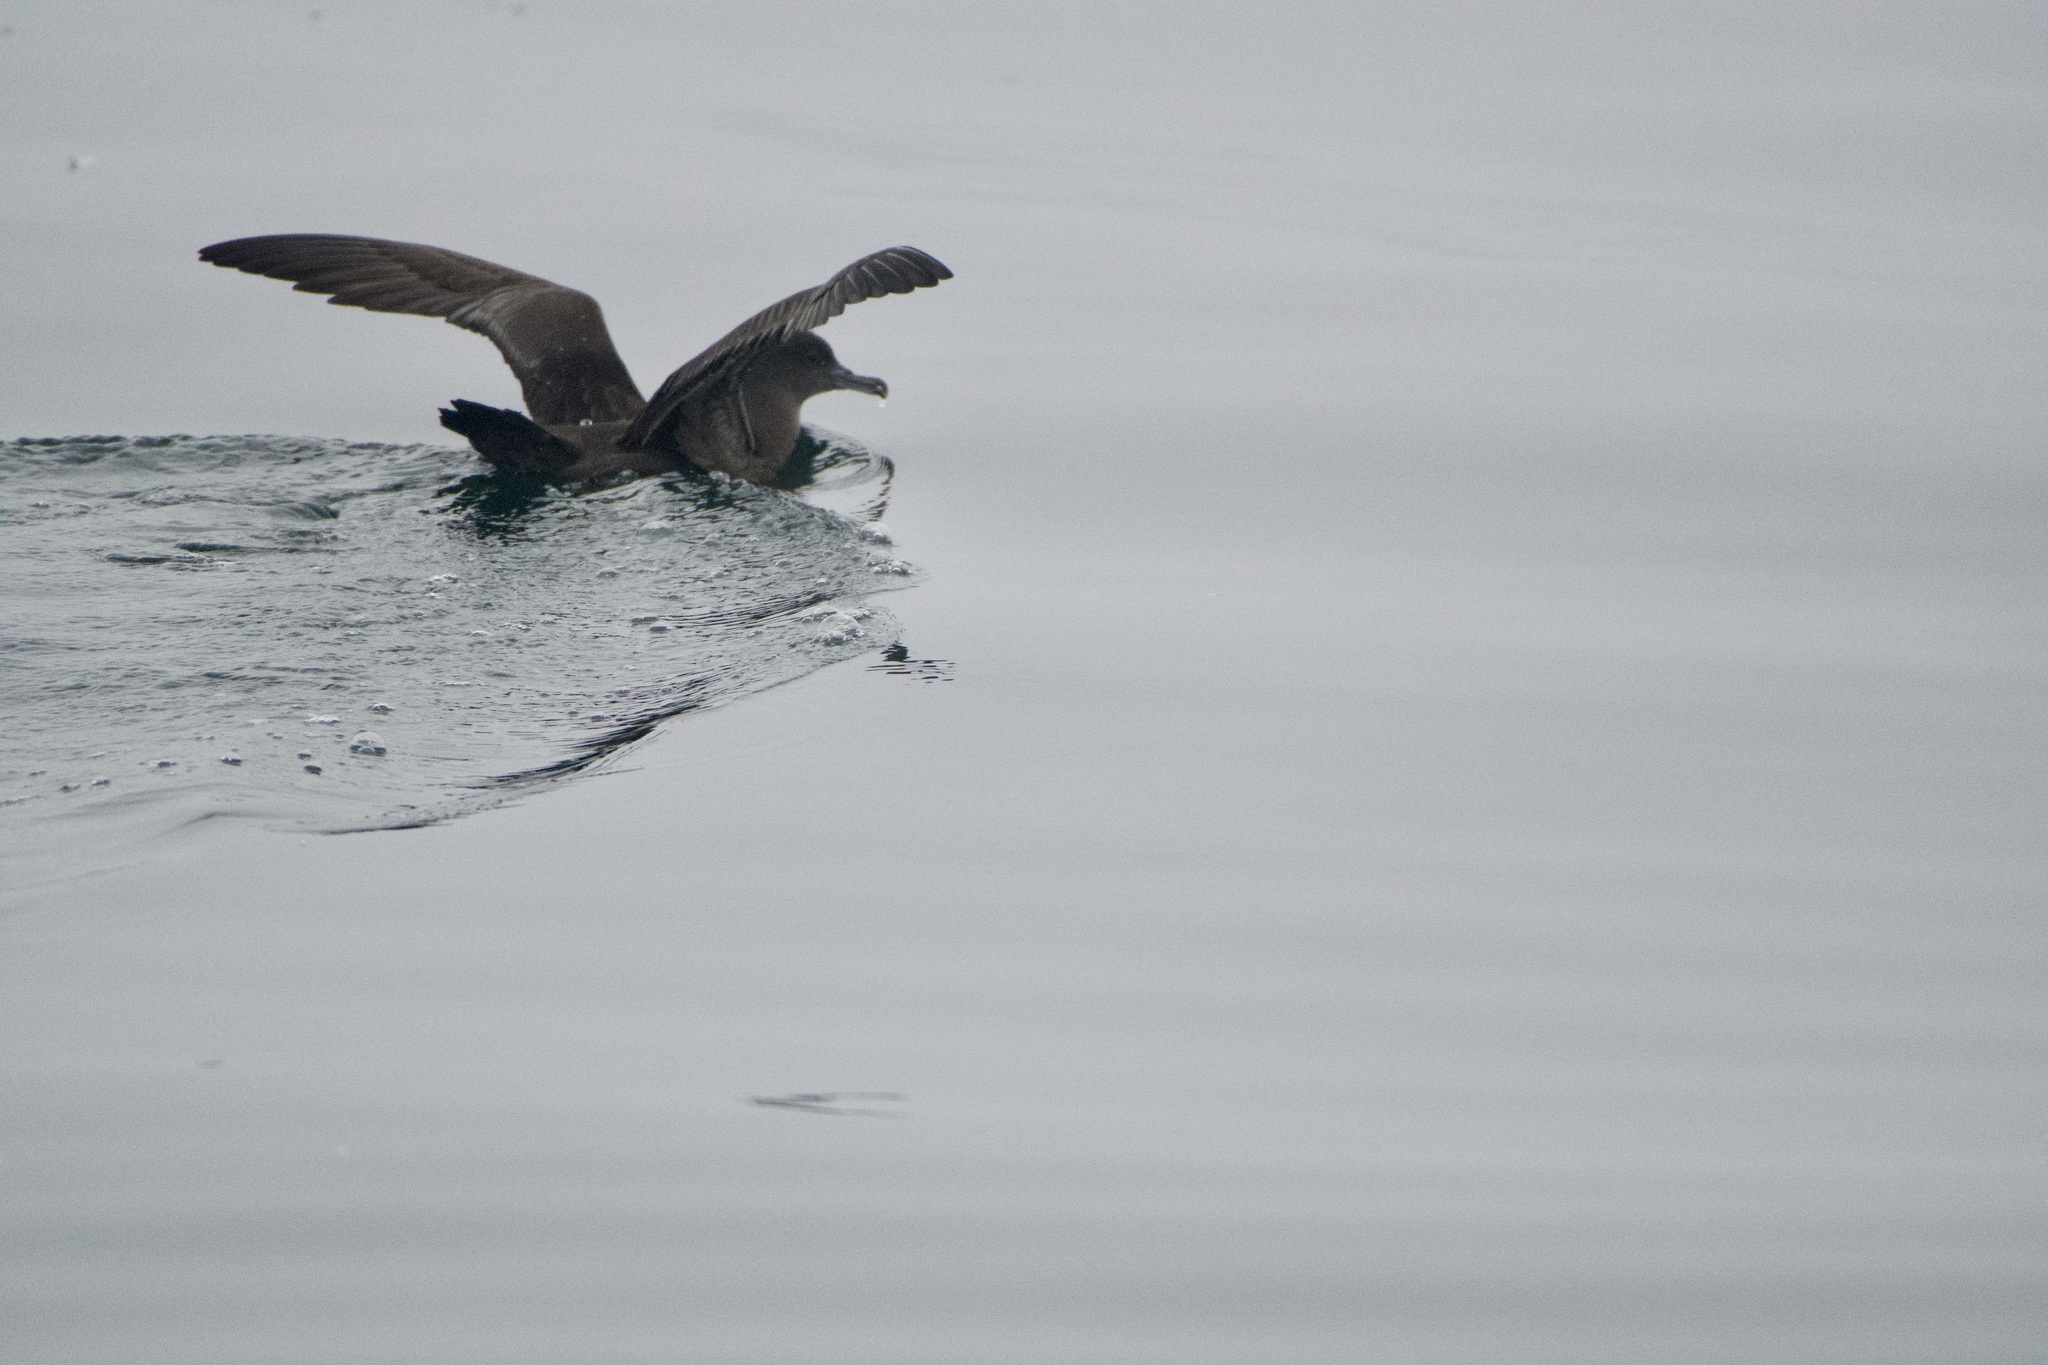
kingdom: Animalia
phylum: Chordata
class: Aves
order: Procellariiformes
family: Procellariidae
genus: Puffinus
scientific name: Puffinus griseus
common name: Sooty shearwater
